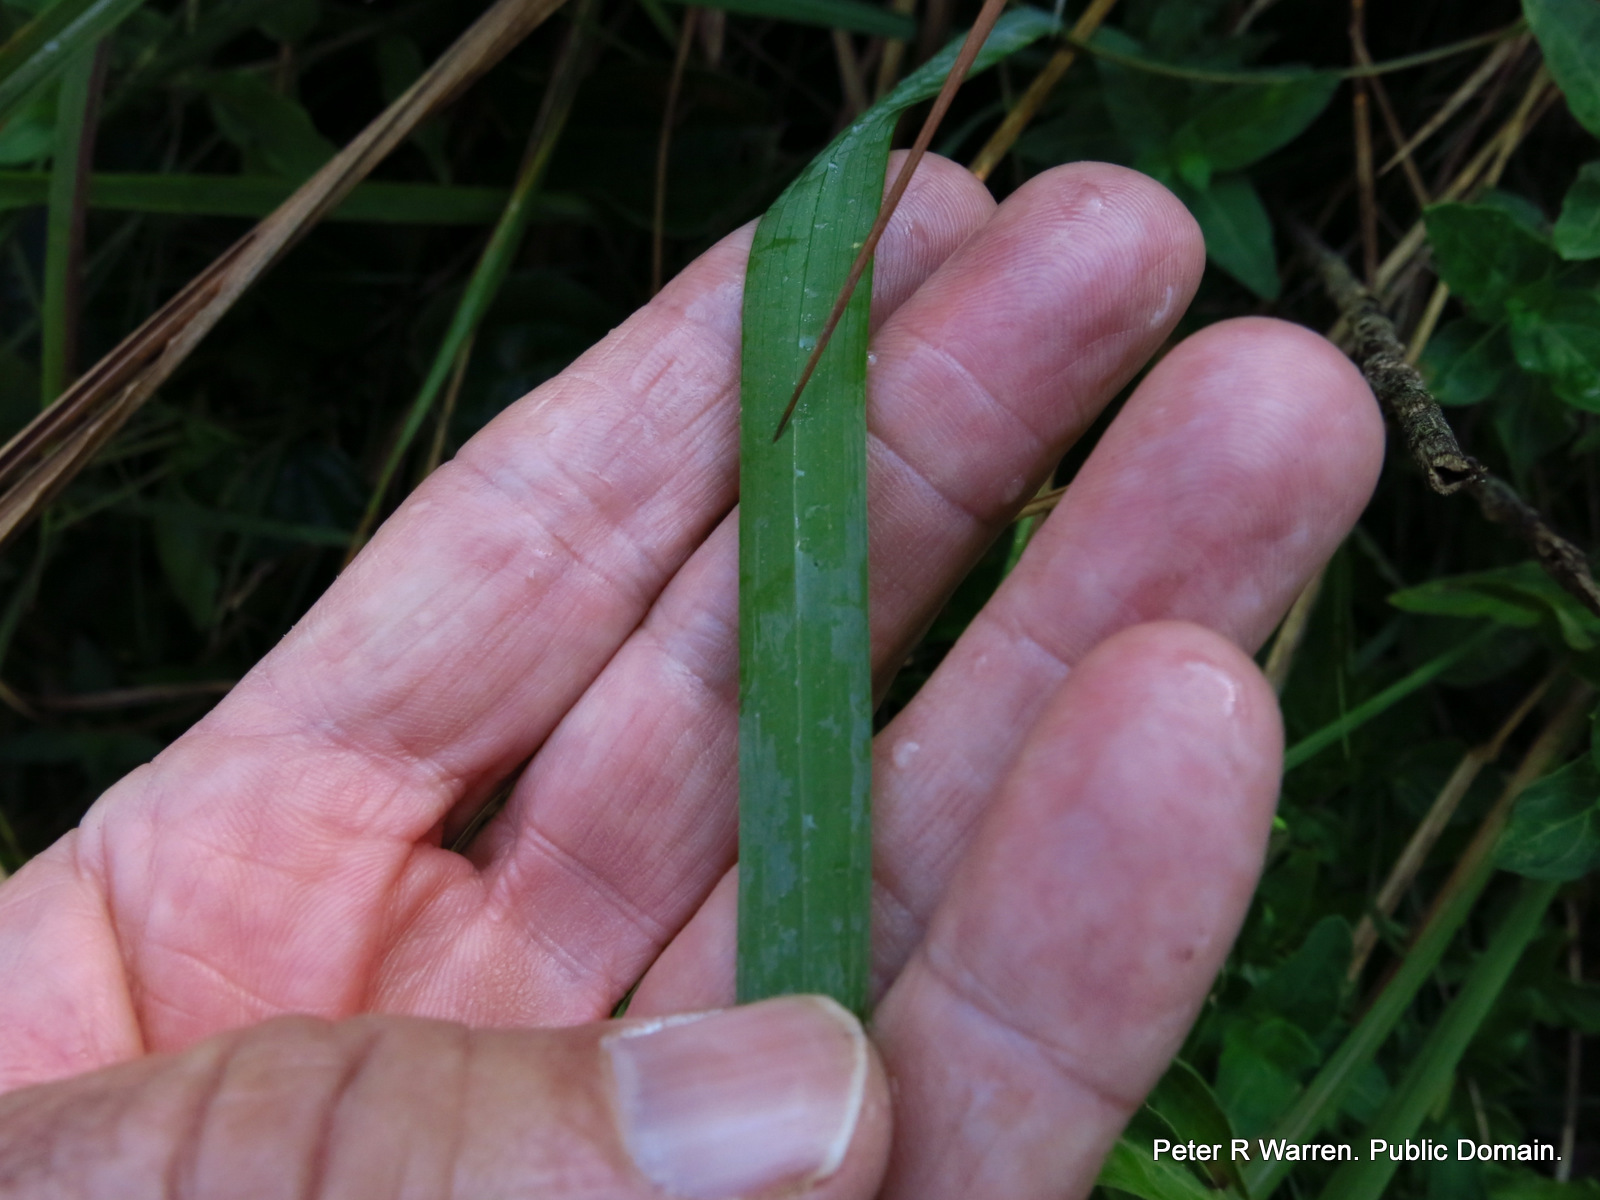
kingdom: Plantae
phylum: Tracheophyta
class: Liliopsida
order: Asparagales
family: Iridaceae
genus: Freesia
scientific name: Freesia laxa
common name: False freesia
